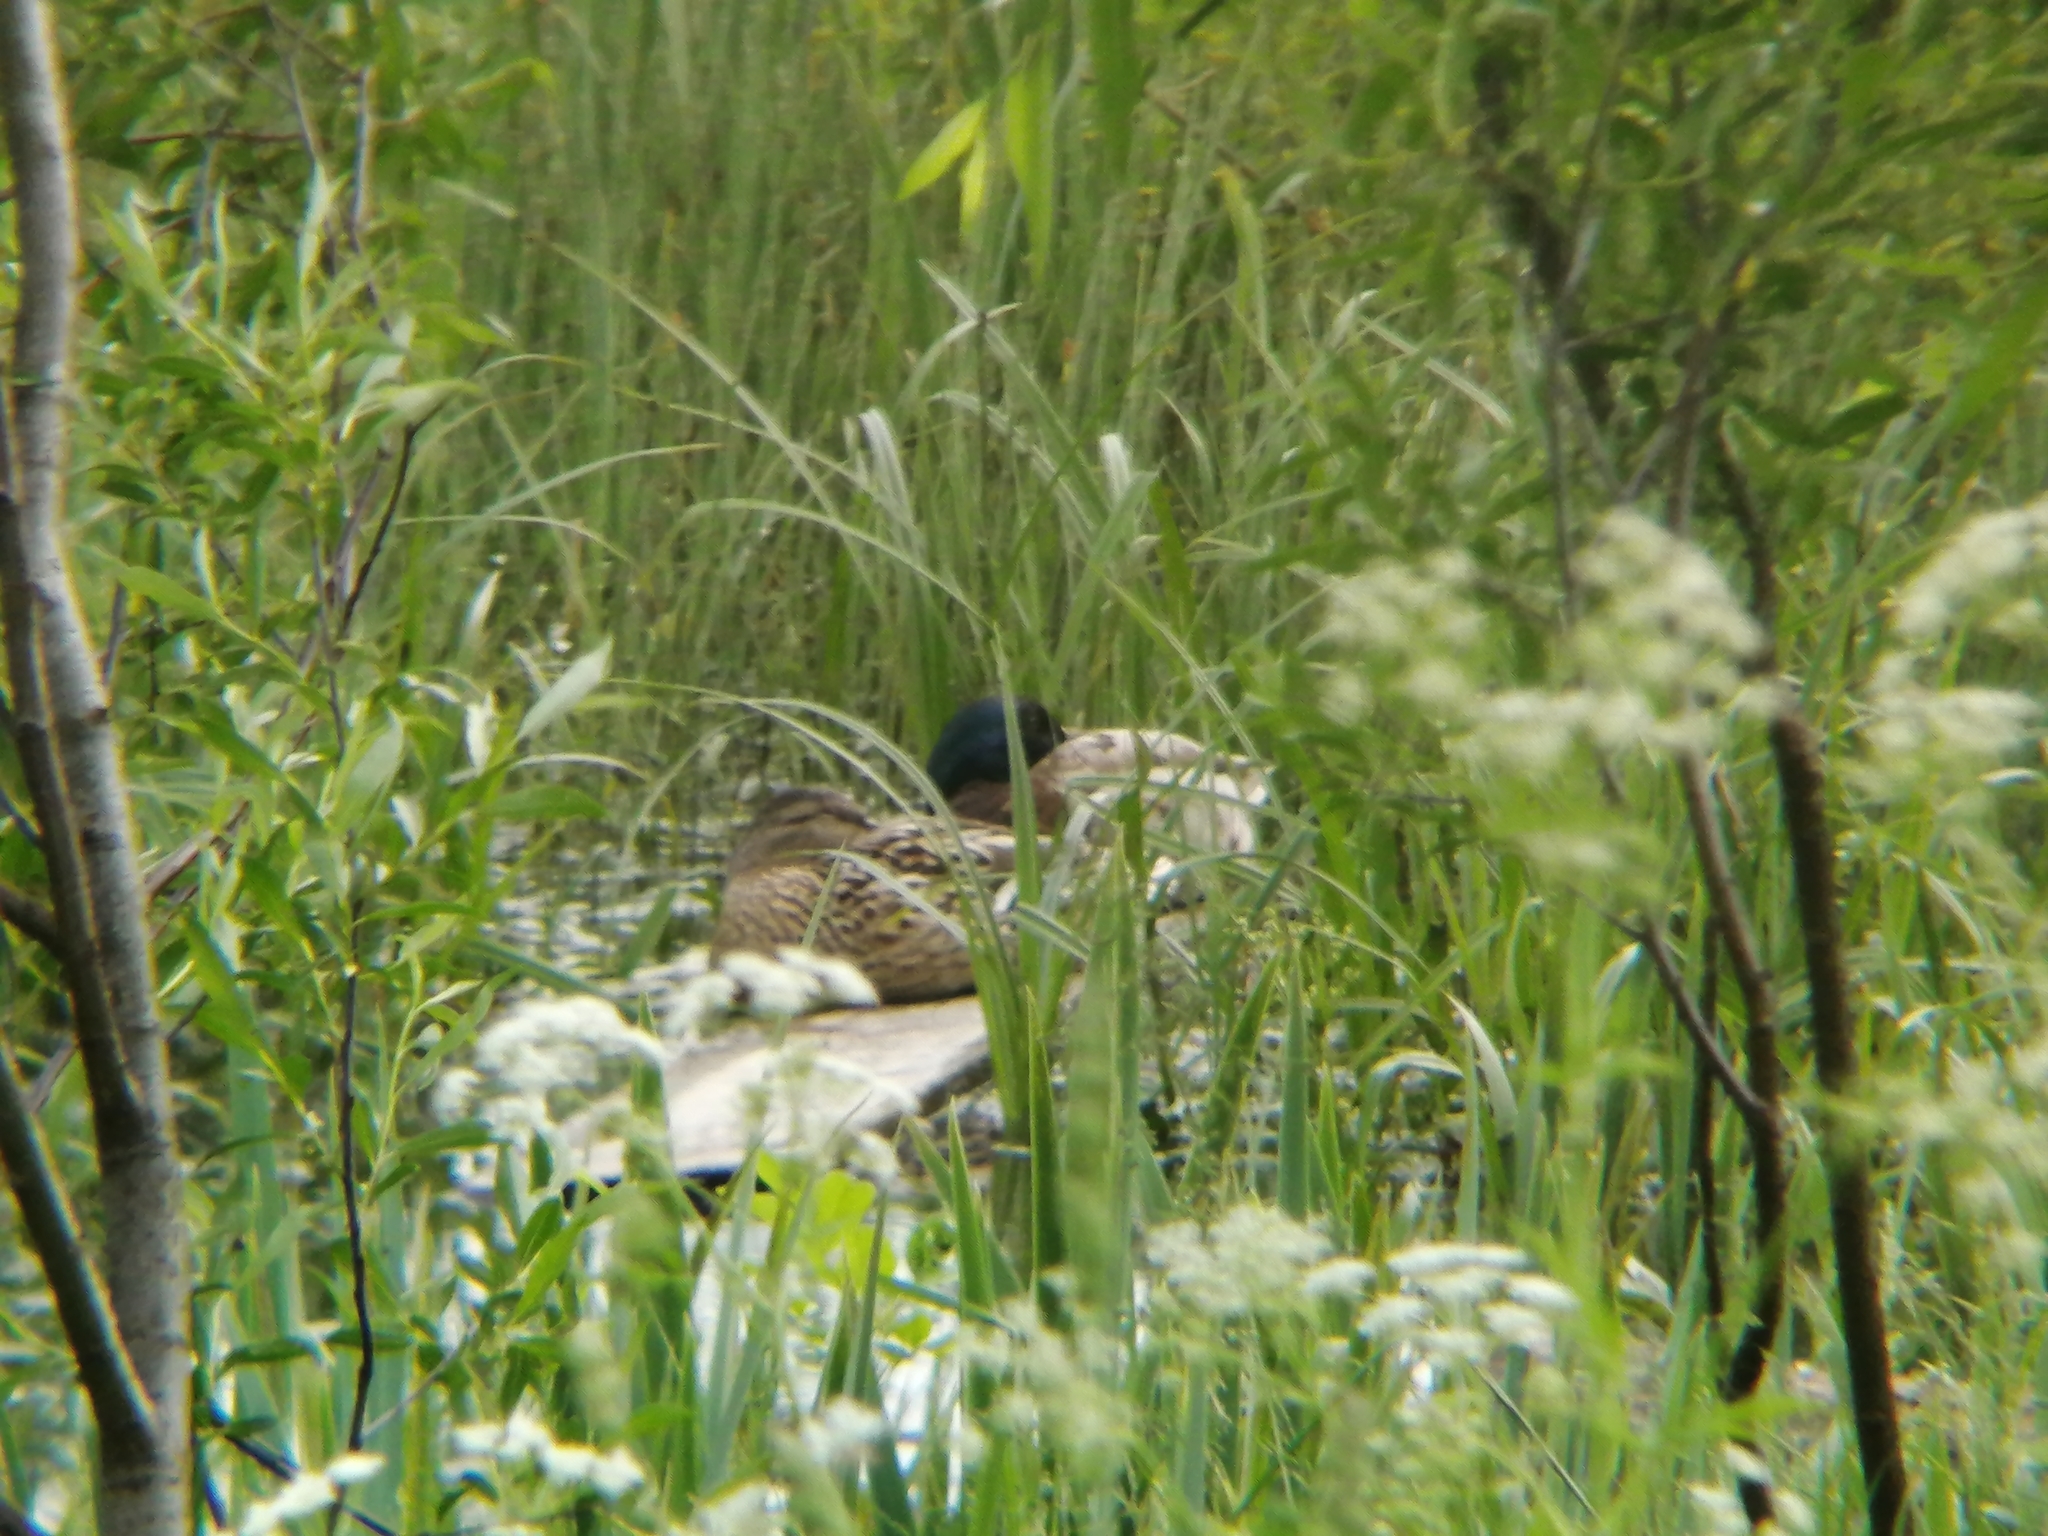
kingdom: Animalia
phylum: Chordata
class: Aves
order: Anseriformes
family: Anatidae
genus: Anas
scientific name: Anas platyrhynchos
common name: Mallard
